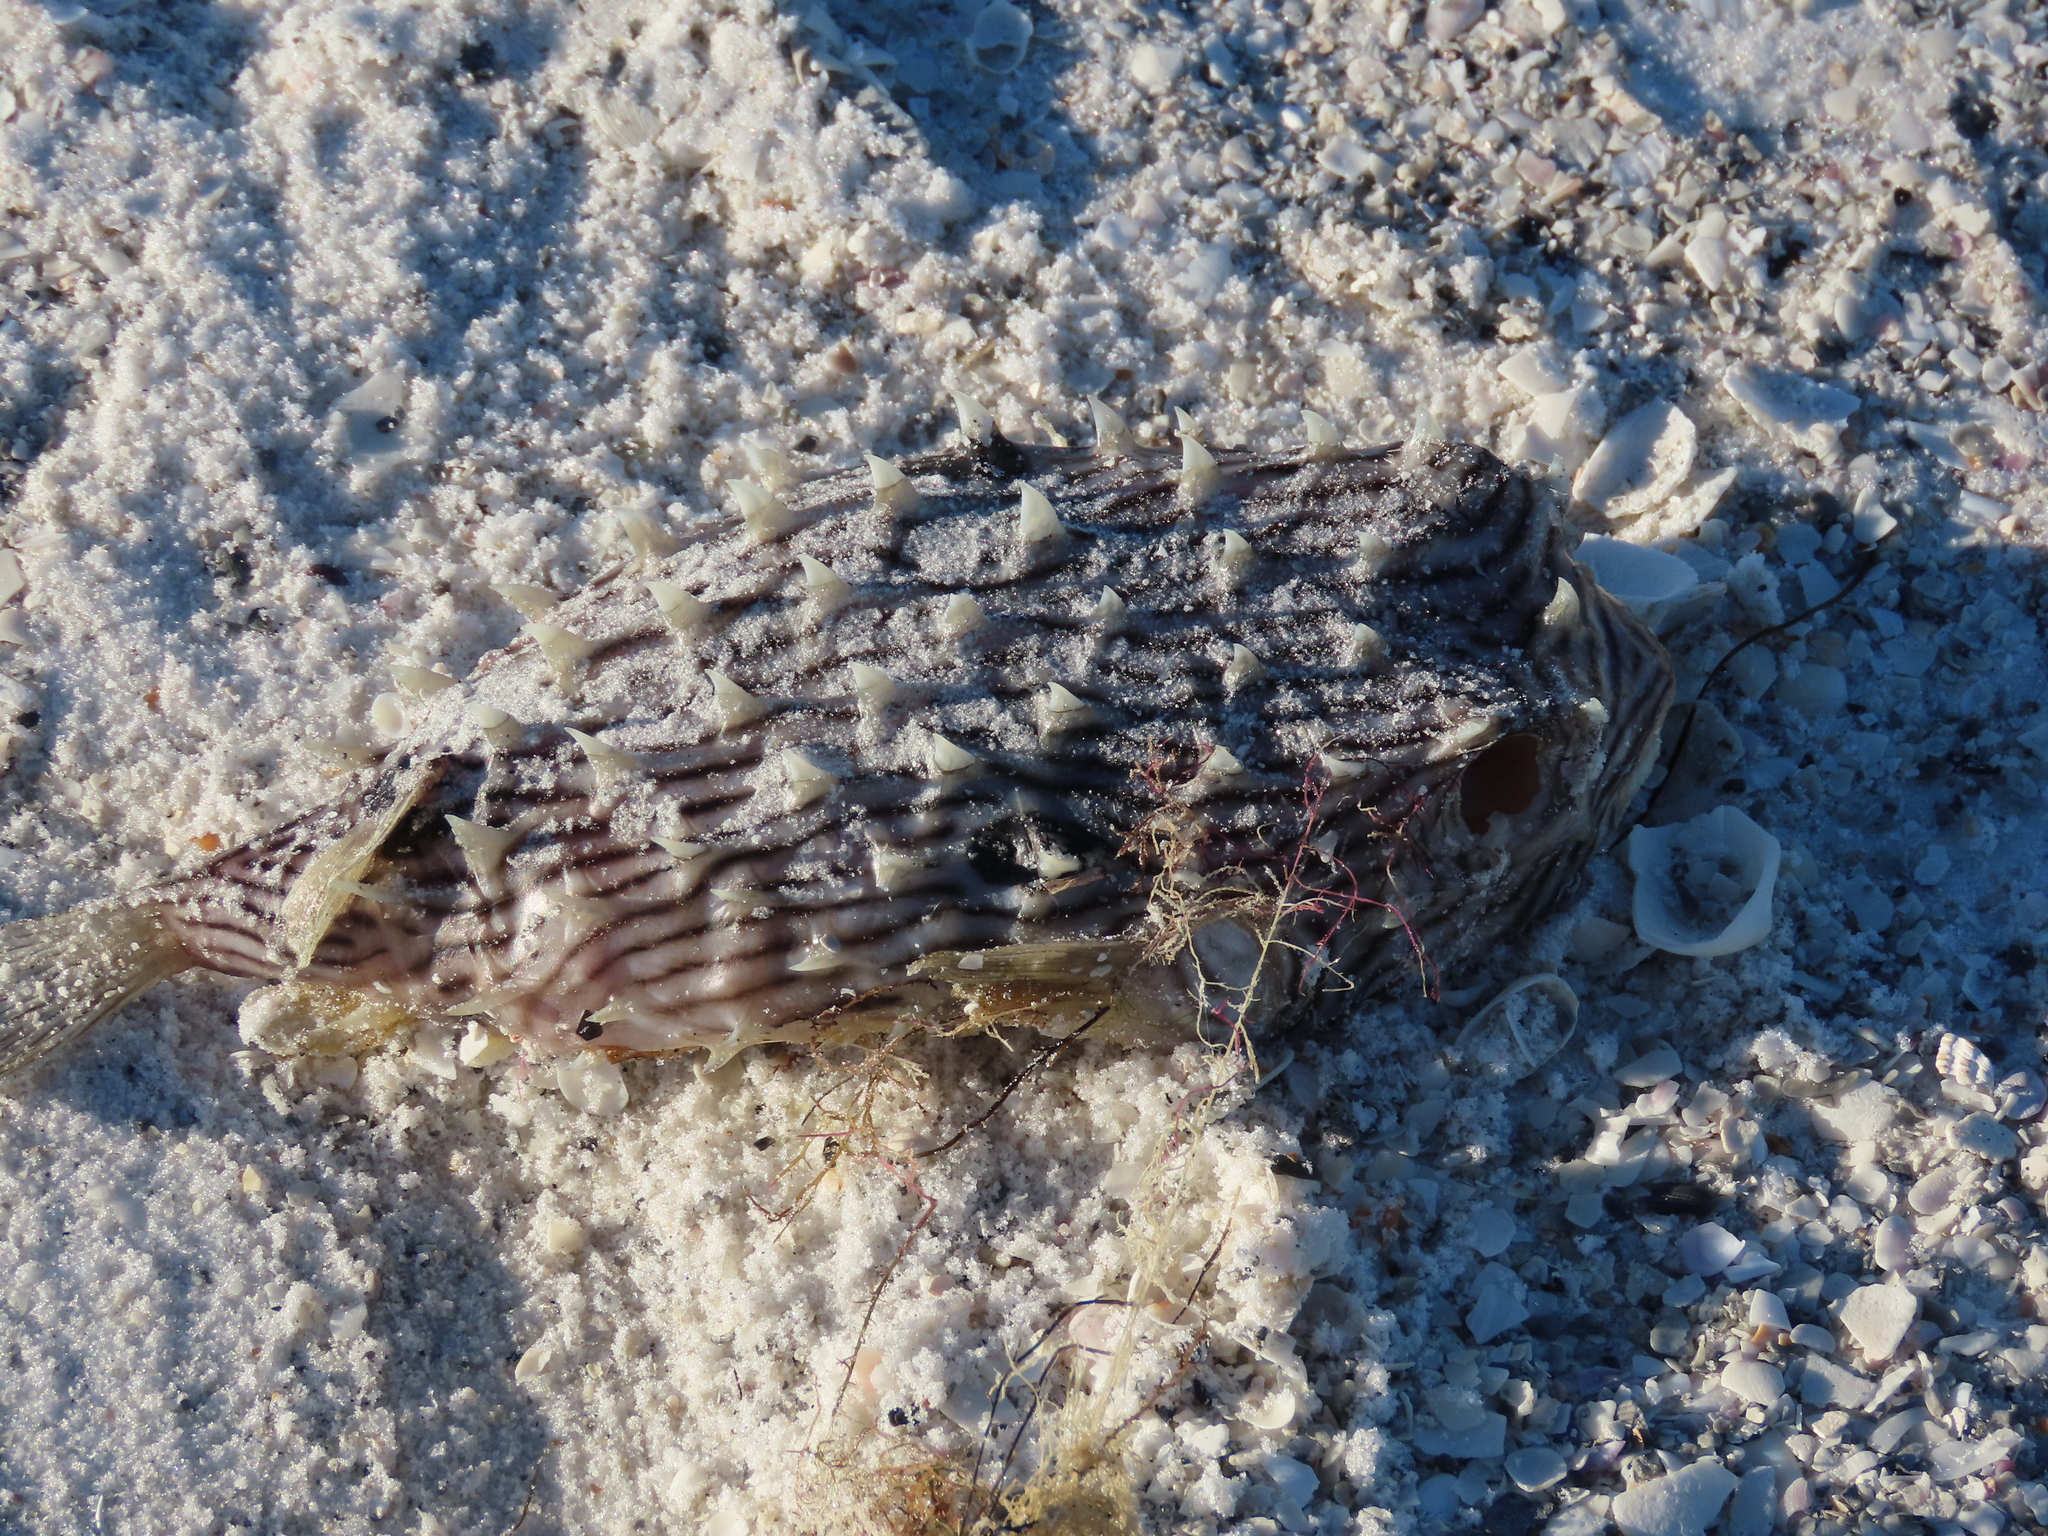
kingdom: Animalia
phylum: Chordata
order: Tetraodontiformes
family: Diodontidae
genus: Chilomycterus
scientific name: Chilomycterus schoepfii
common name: Striped burrfish
